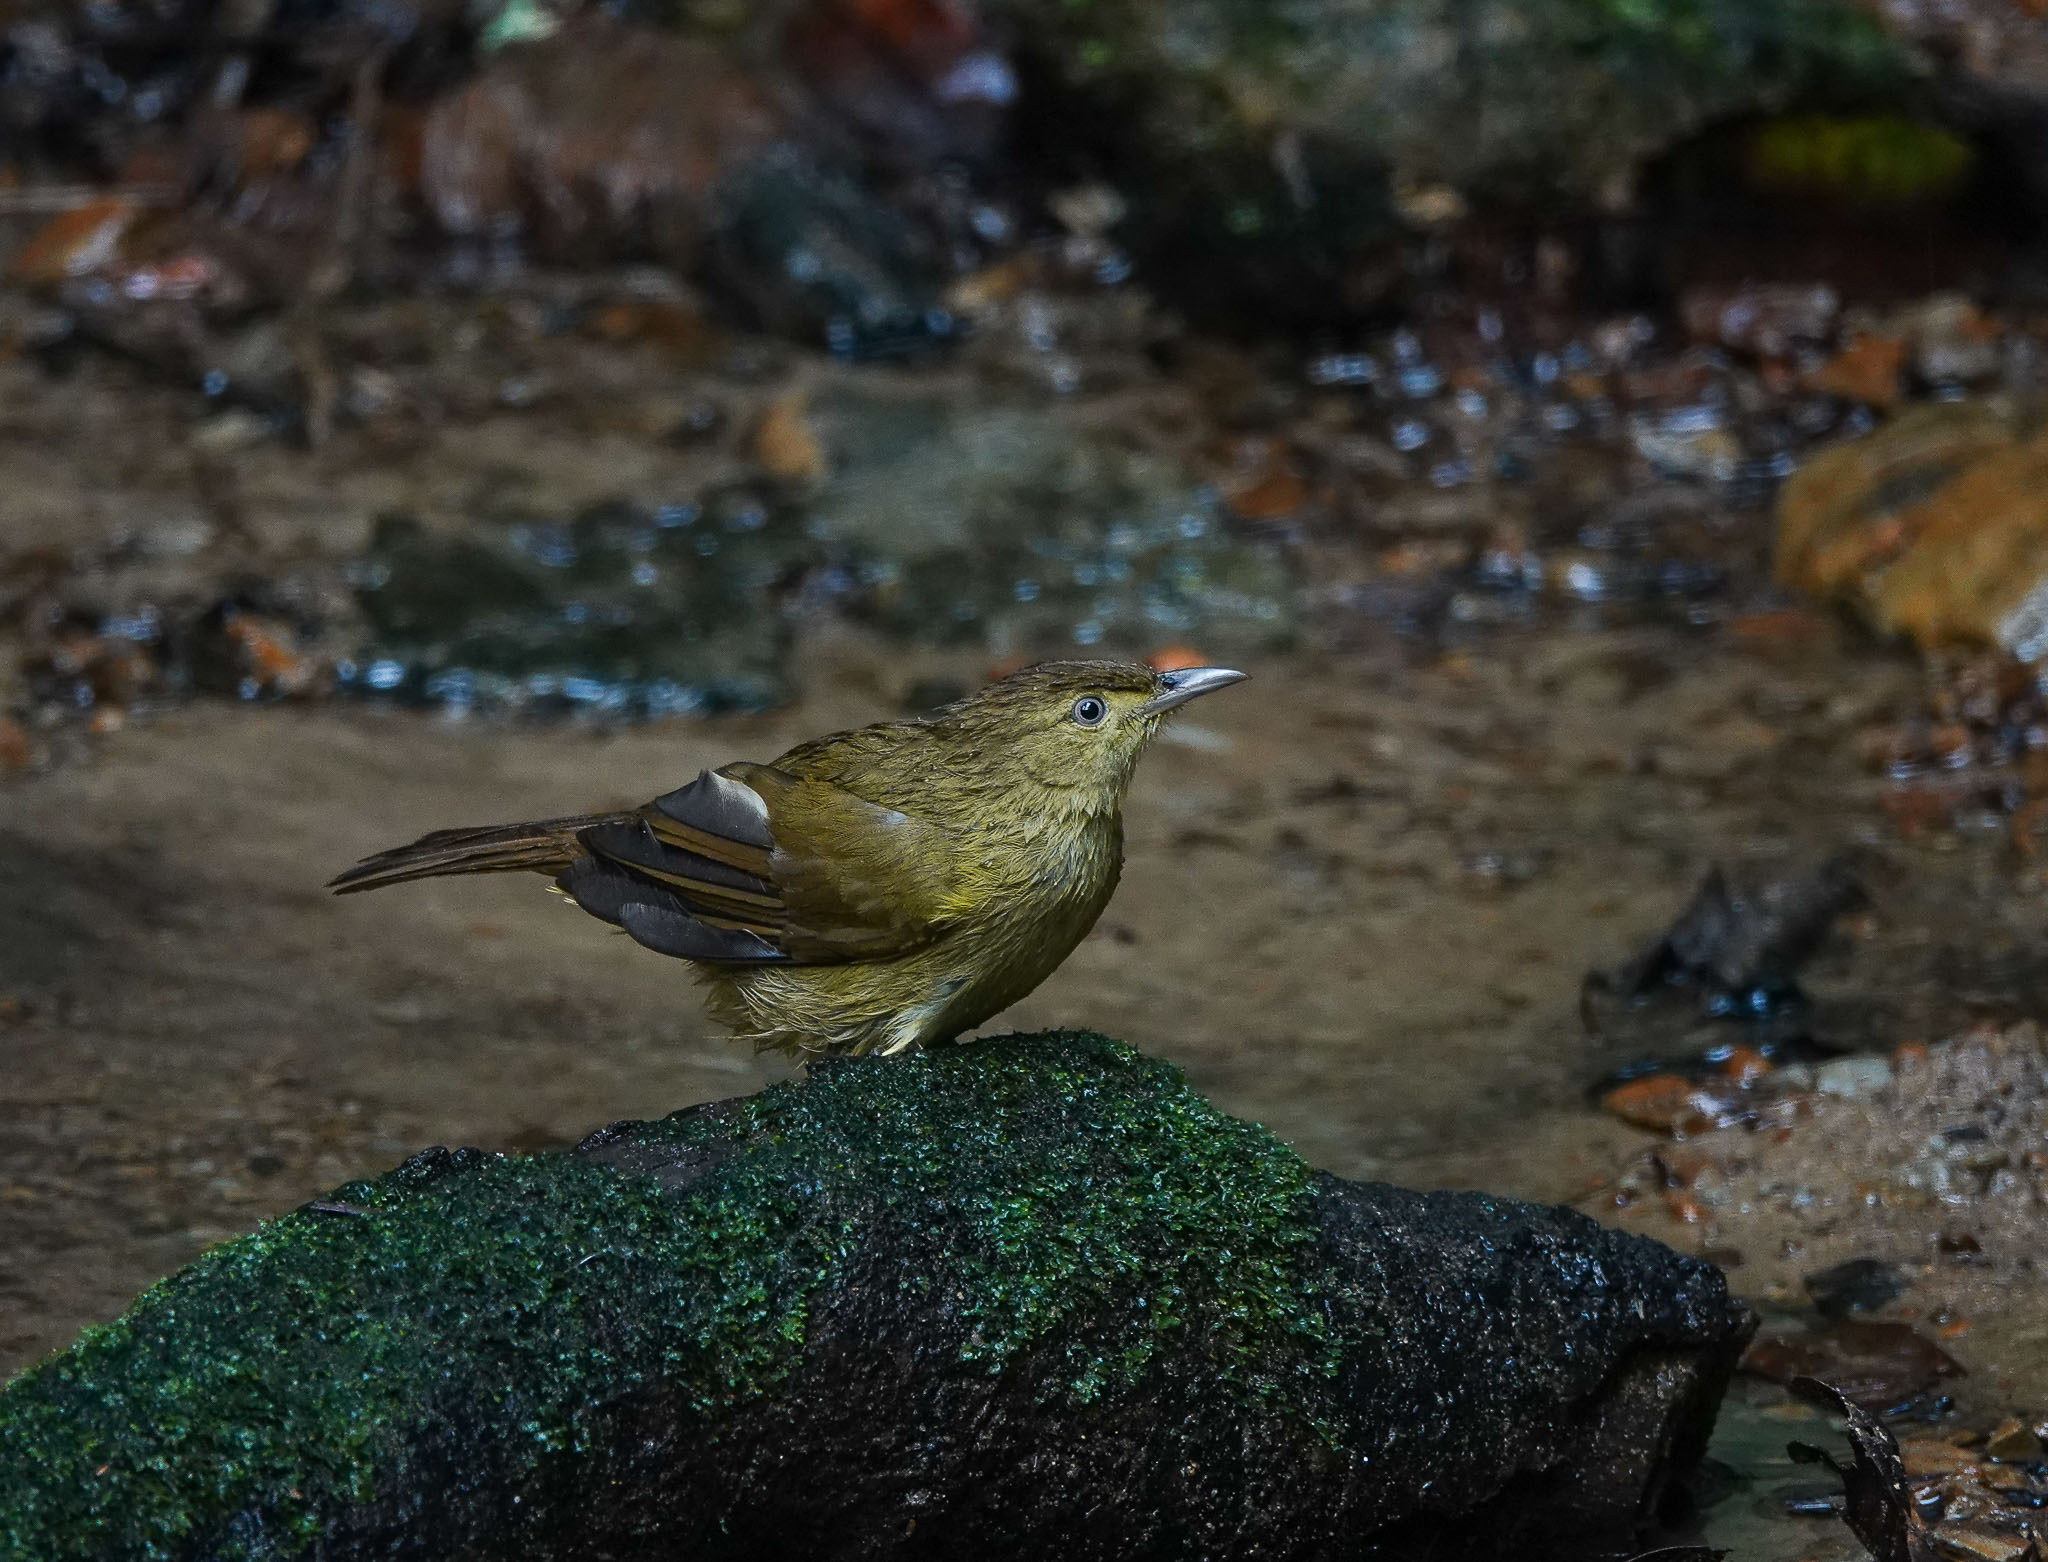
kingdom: Animalia
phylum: Chordata
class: Aves
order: Passeriformes
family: Pycnonotidae
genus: Iole
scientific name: Iole virescens
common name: Olive bulbul
